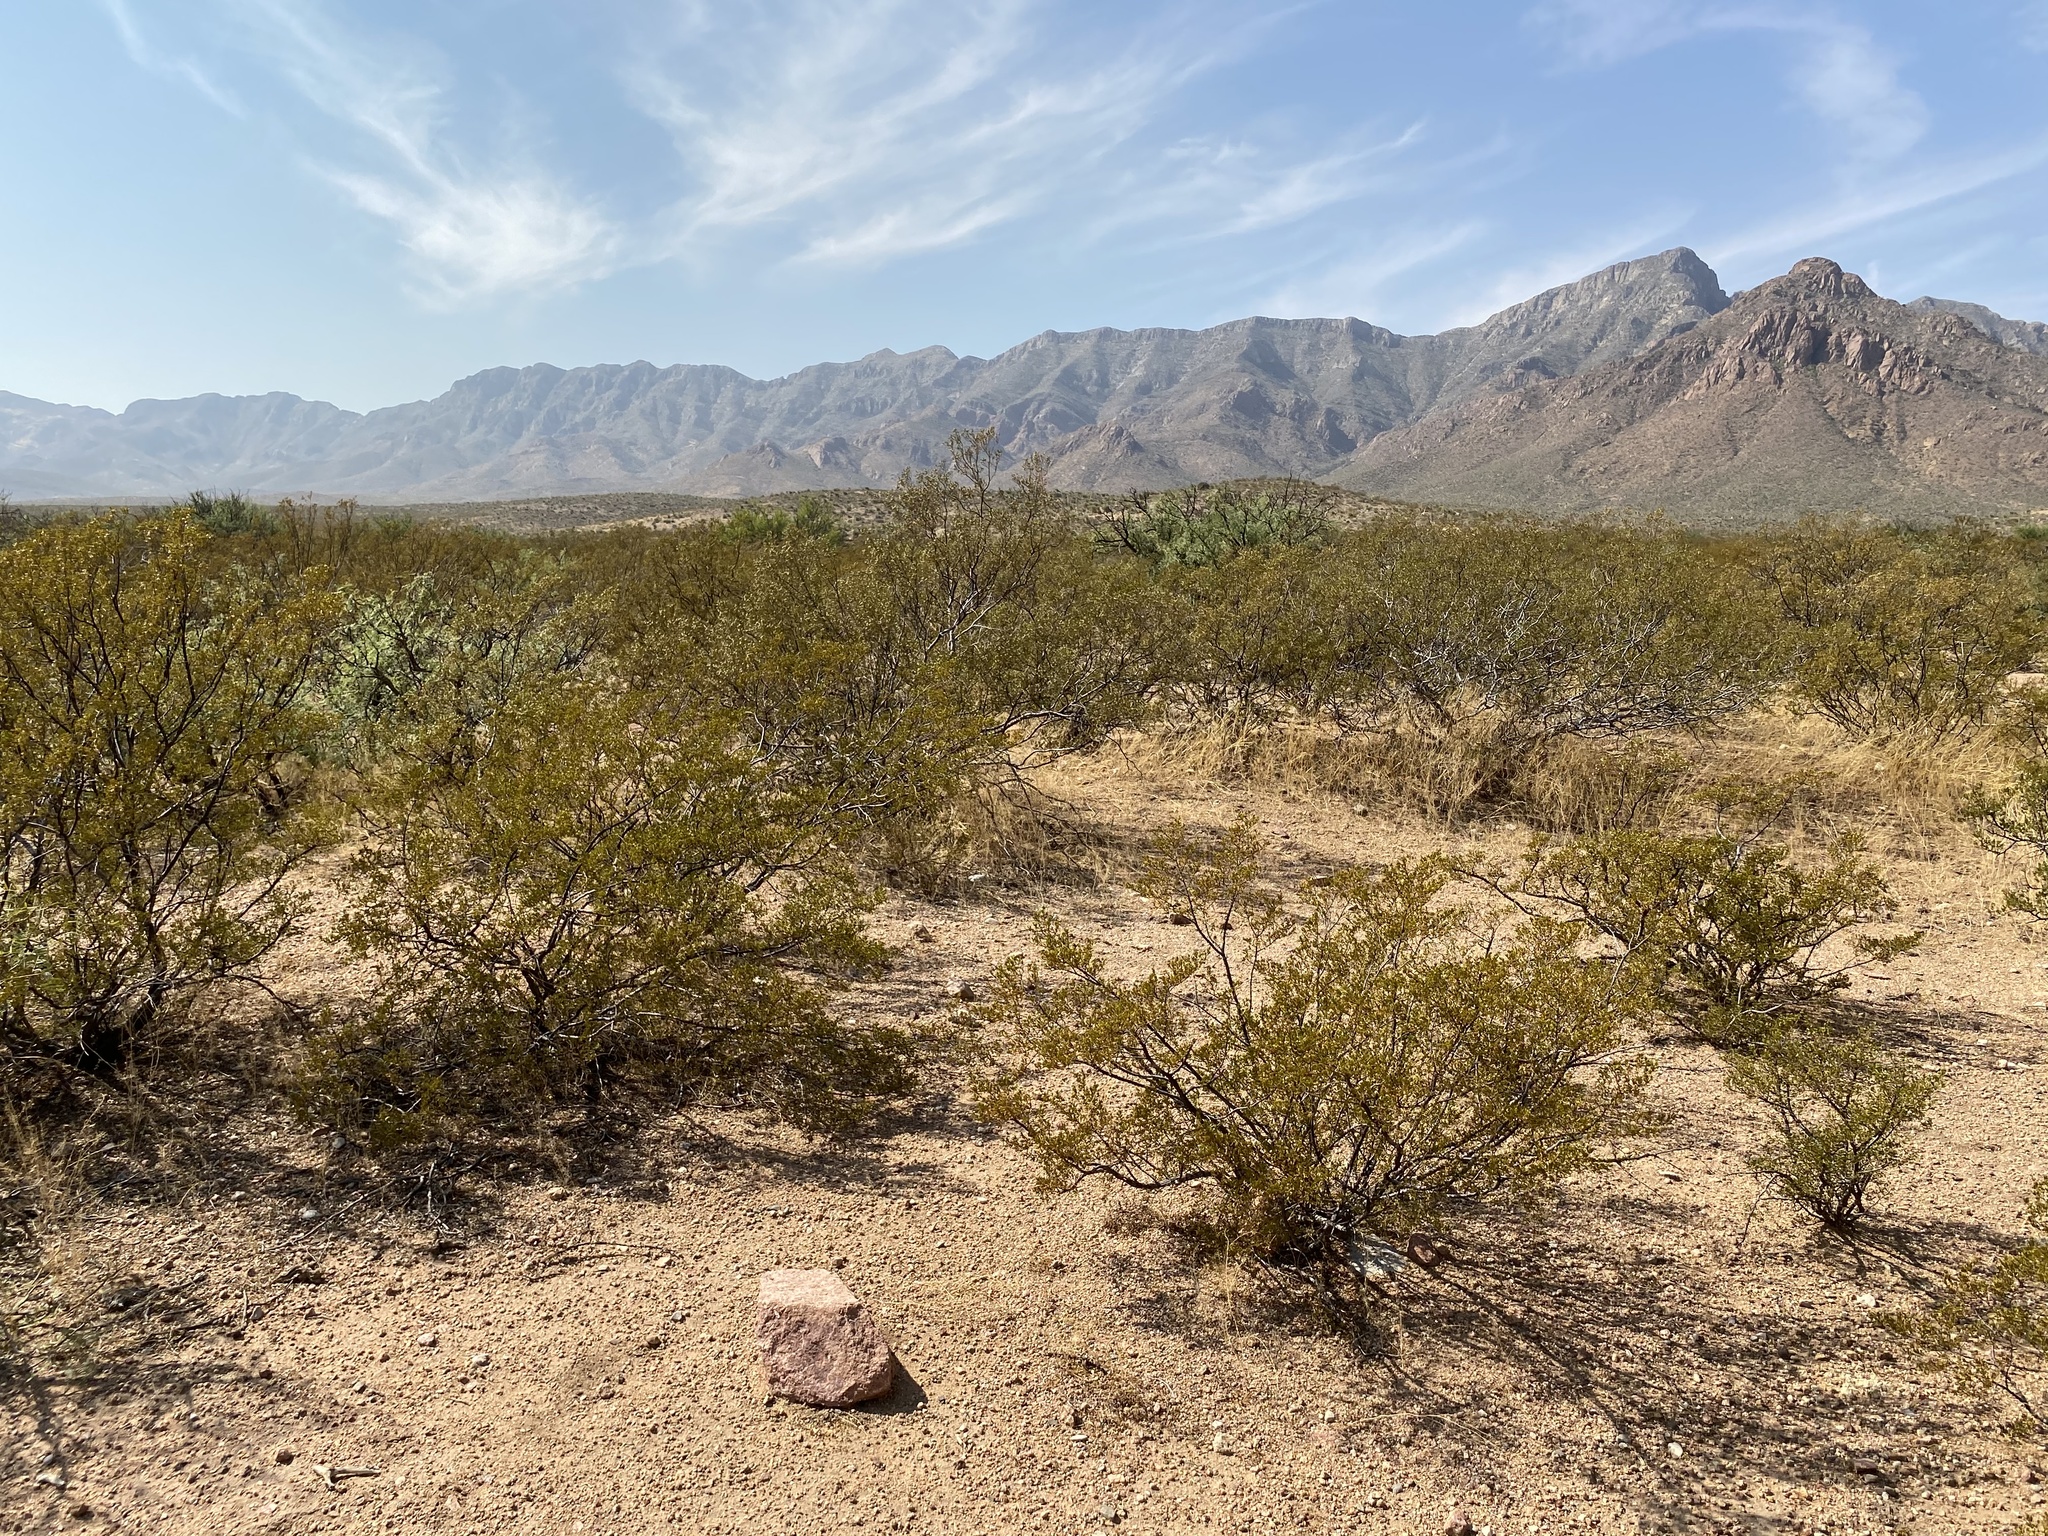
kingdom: Plantae
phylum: Tracheophyta
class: Magnoliopsida
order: Zygophyllales
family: Zygophyllaceae
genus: Larrea
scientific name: Larrea tridentata
